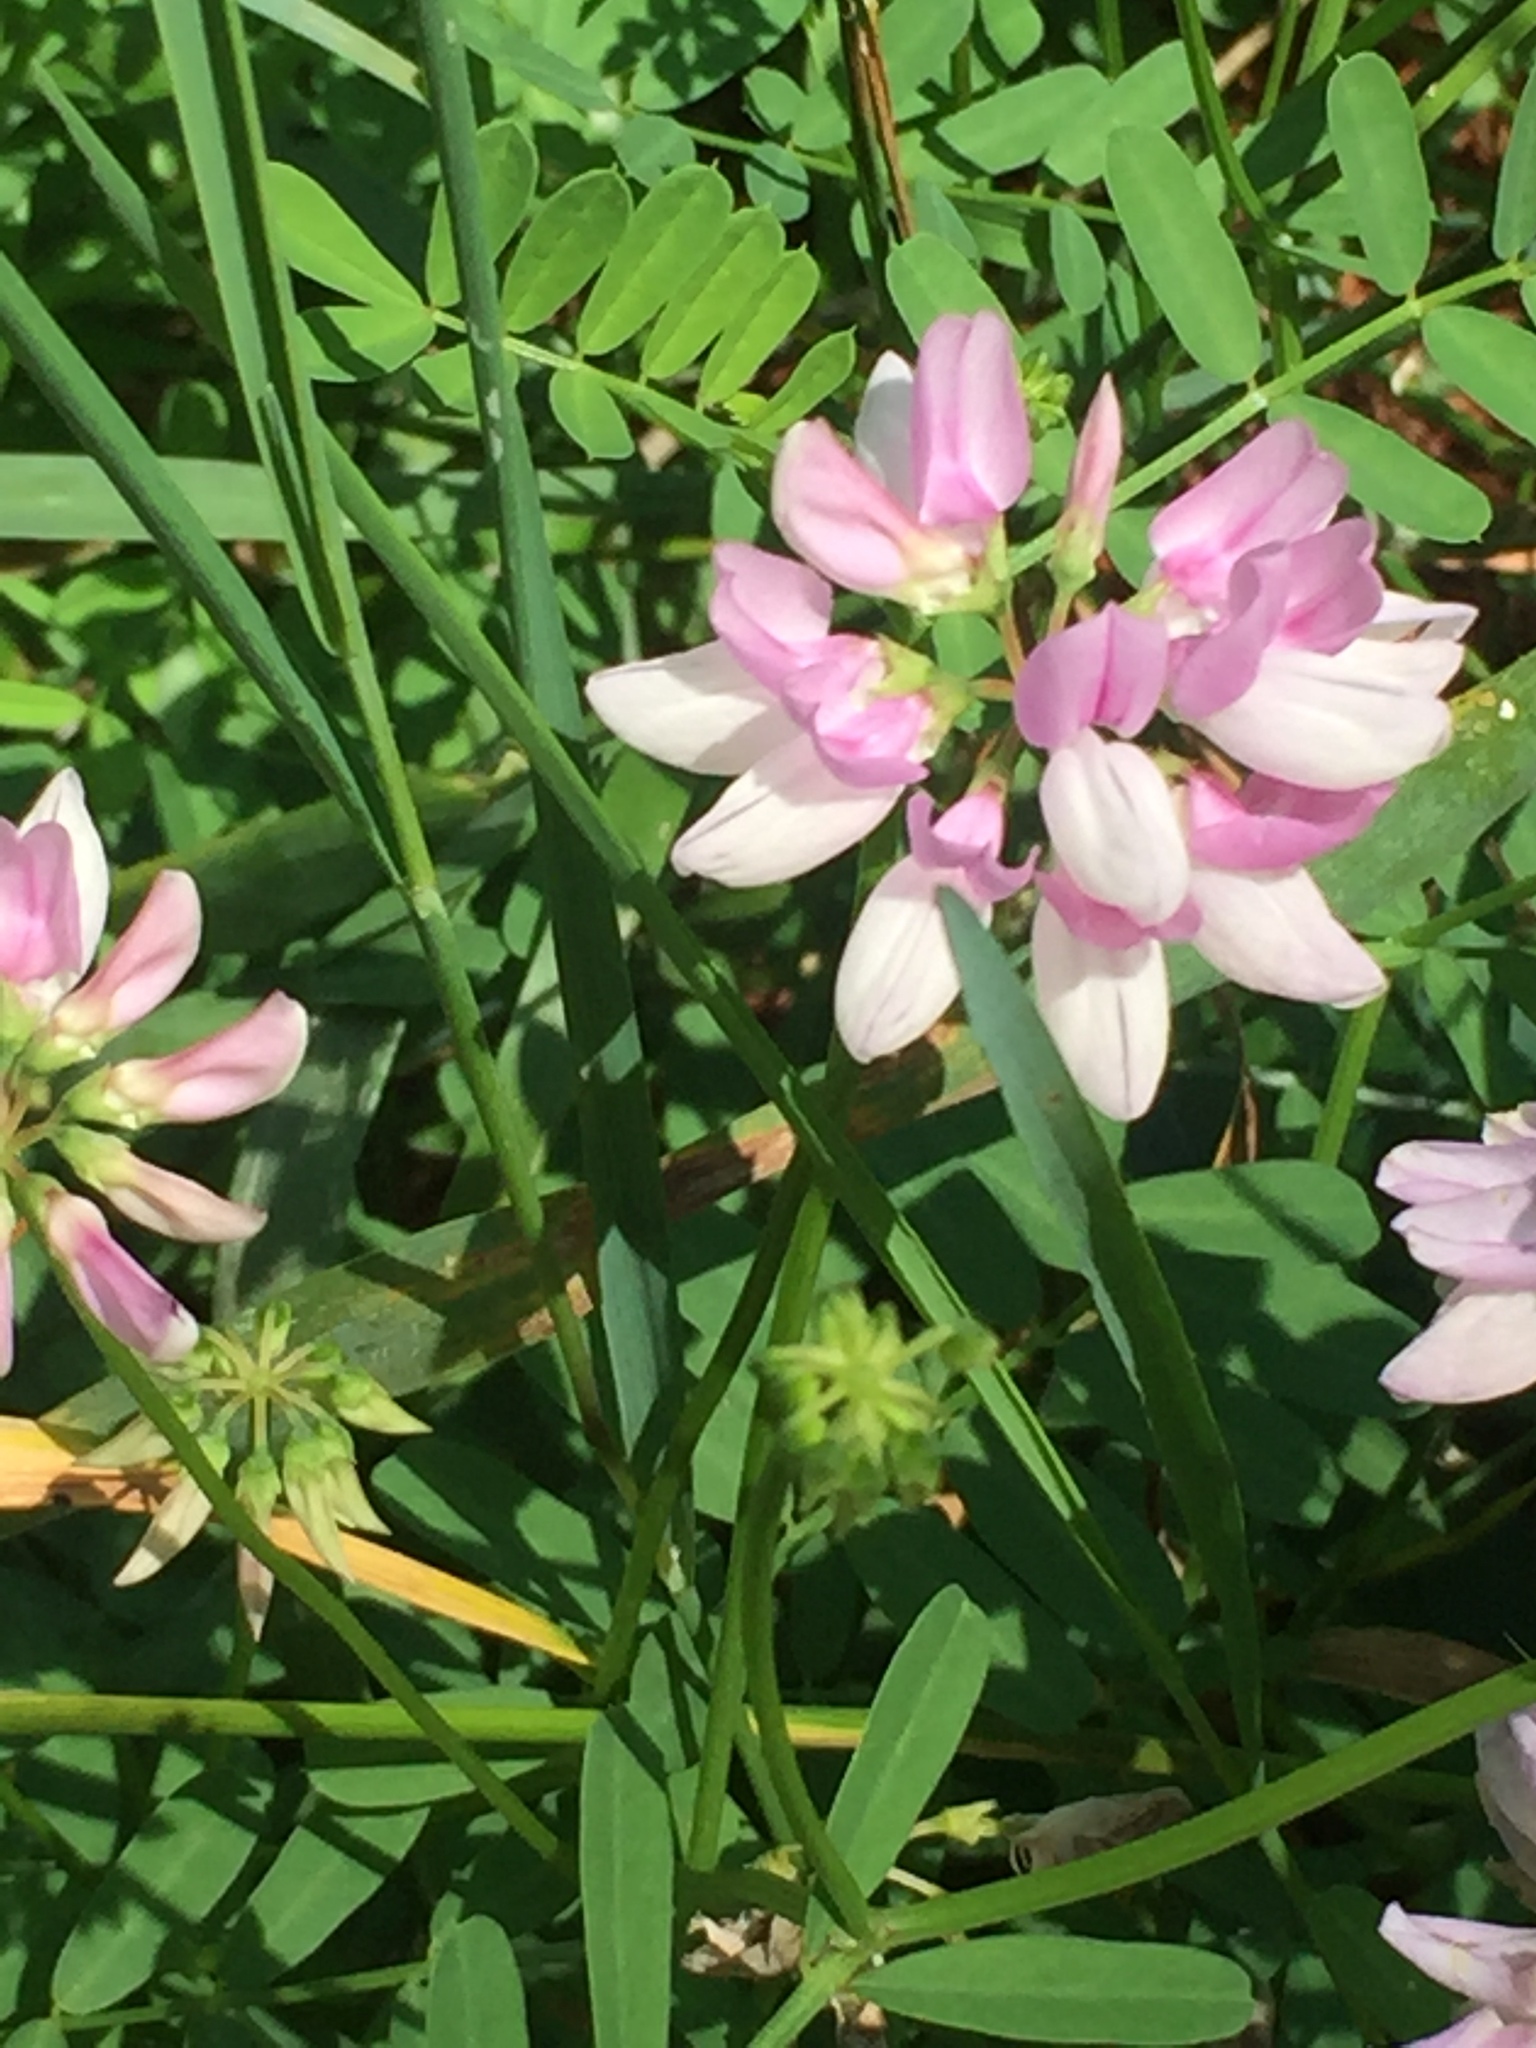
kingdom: Plantae
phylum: Tracheophyta
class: Magnoliopsida
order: Fabales
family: Fabaceae
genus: Coronilla
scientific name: Coronilla varia
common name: Crownvetch
